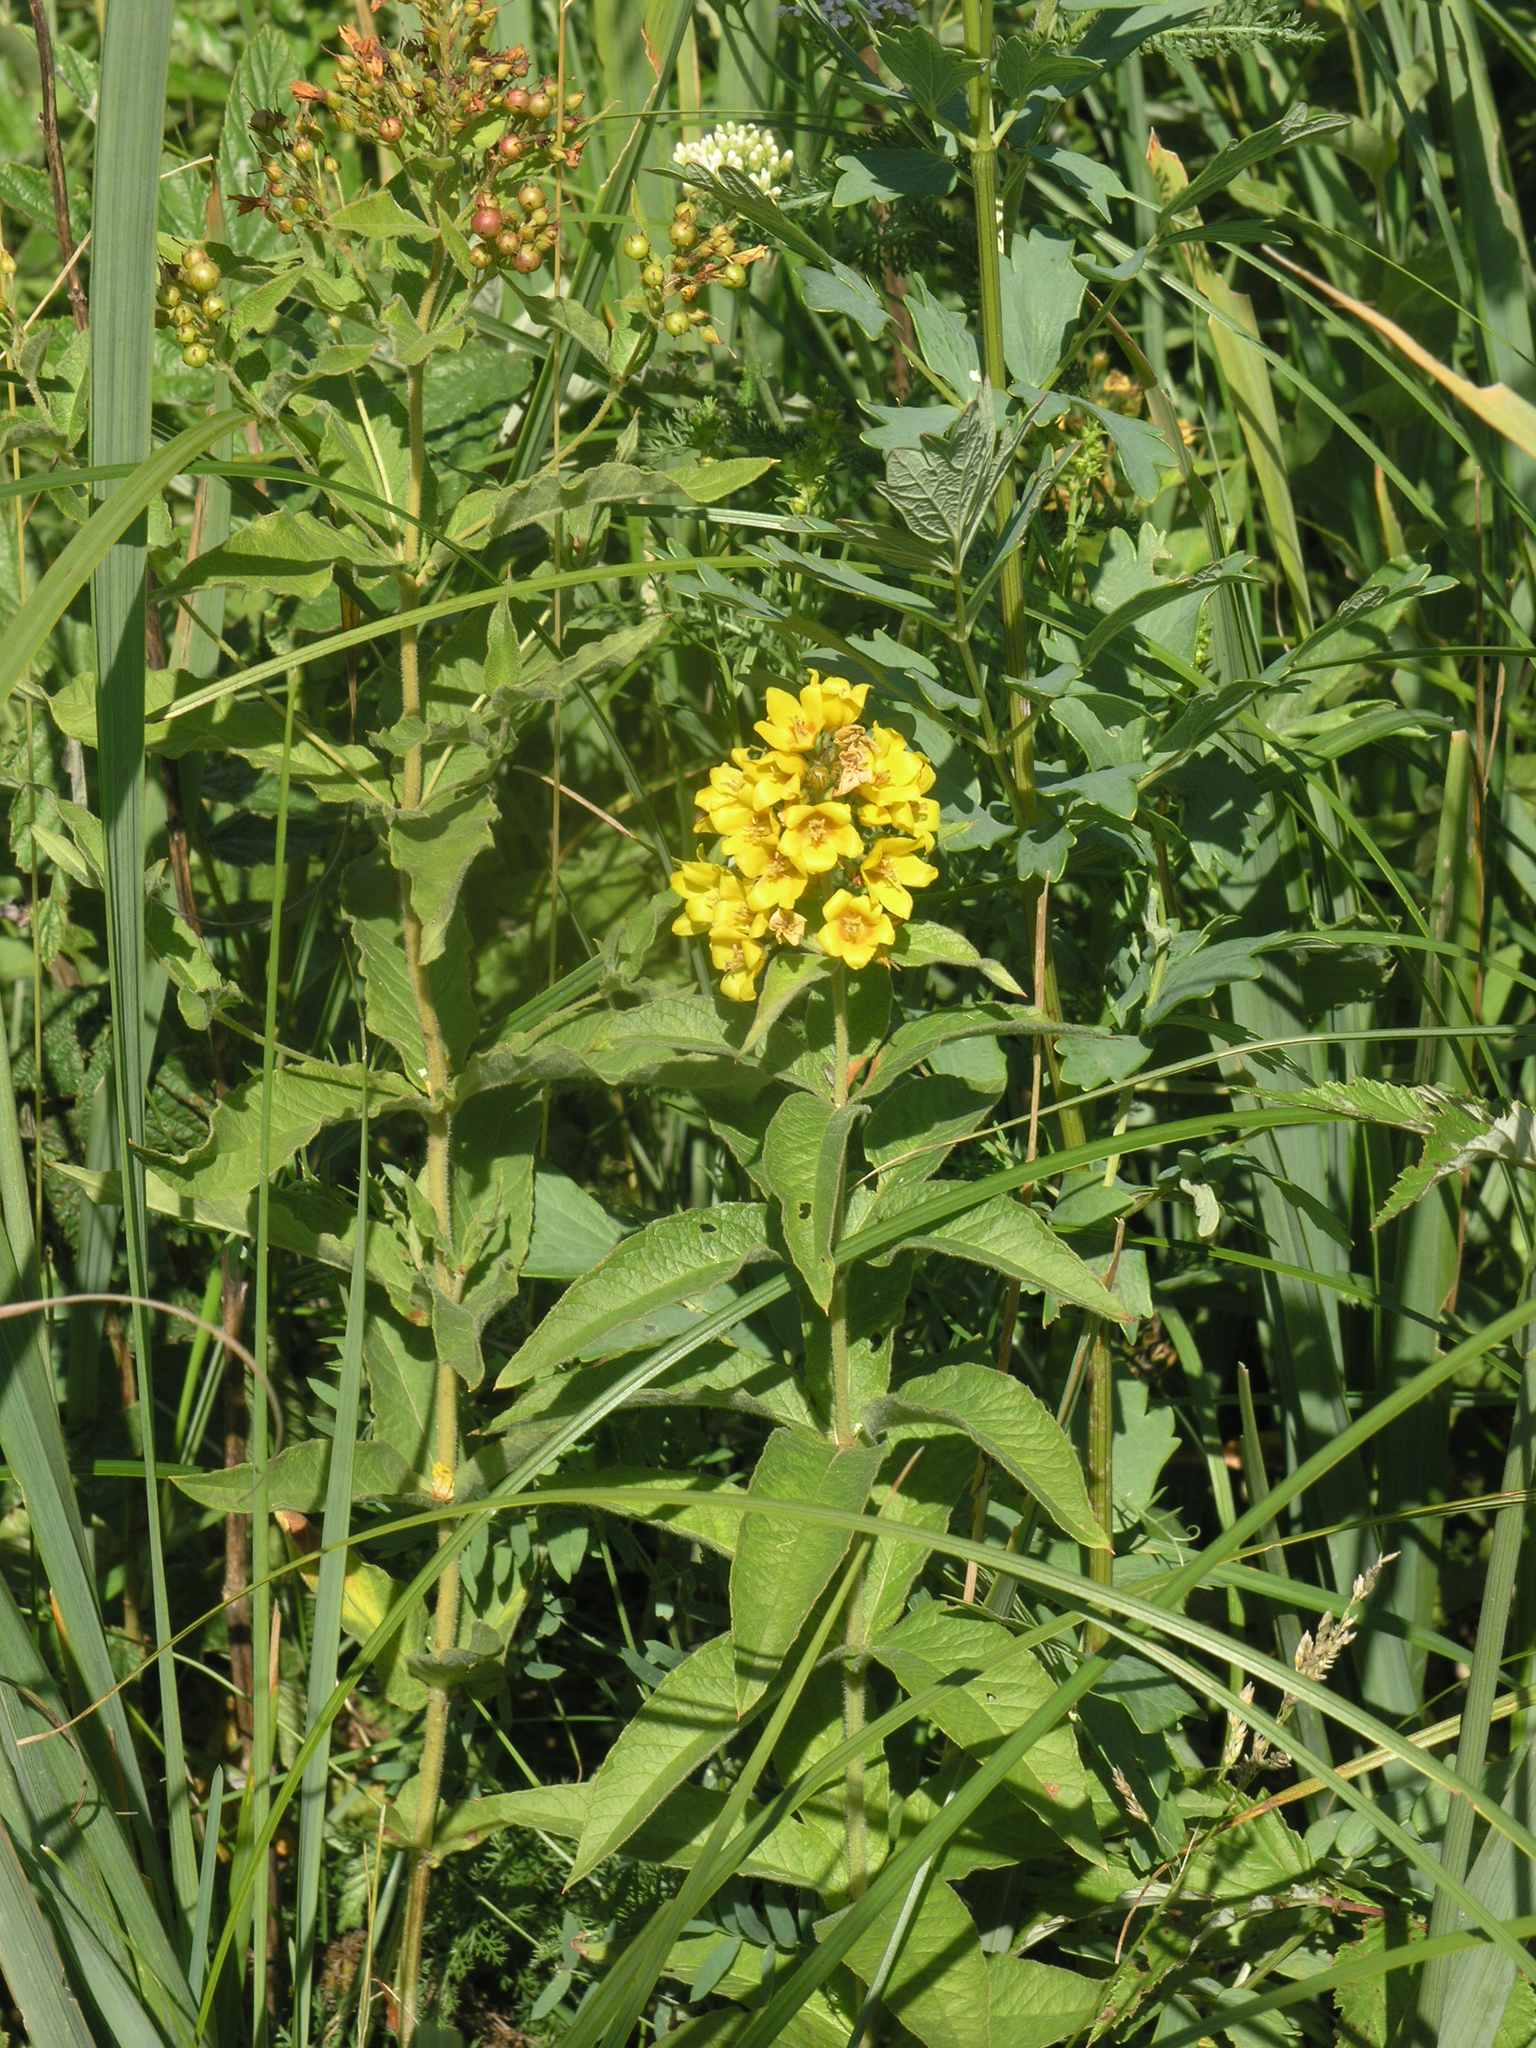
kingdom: Plantae
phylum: Tracheophyta
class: Magnoliopsida
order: Ericales
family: Primulaceae
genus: Lysimachia
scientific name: Lysimachia vulgaris
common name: Yellow loosestrife
